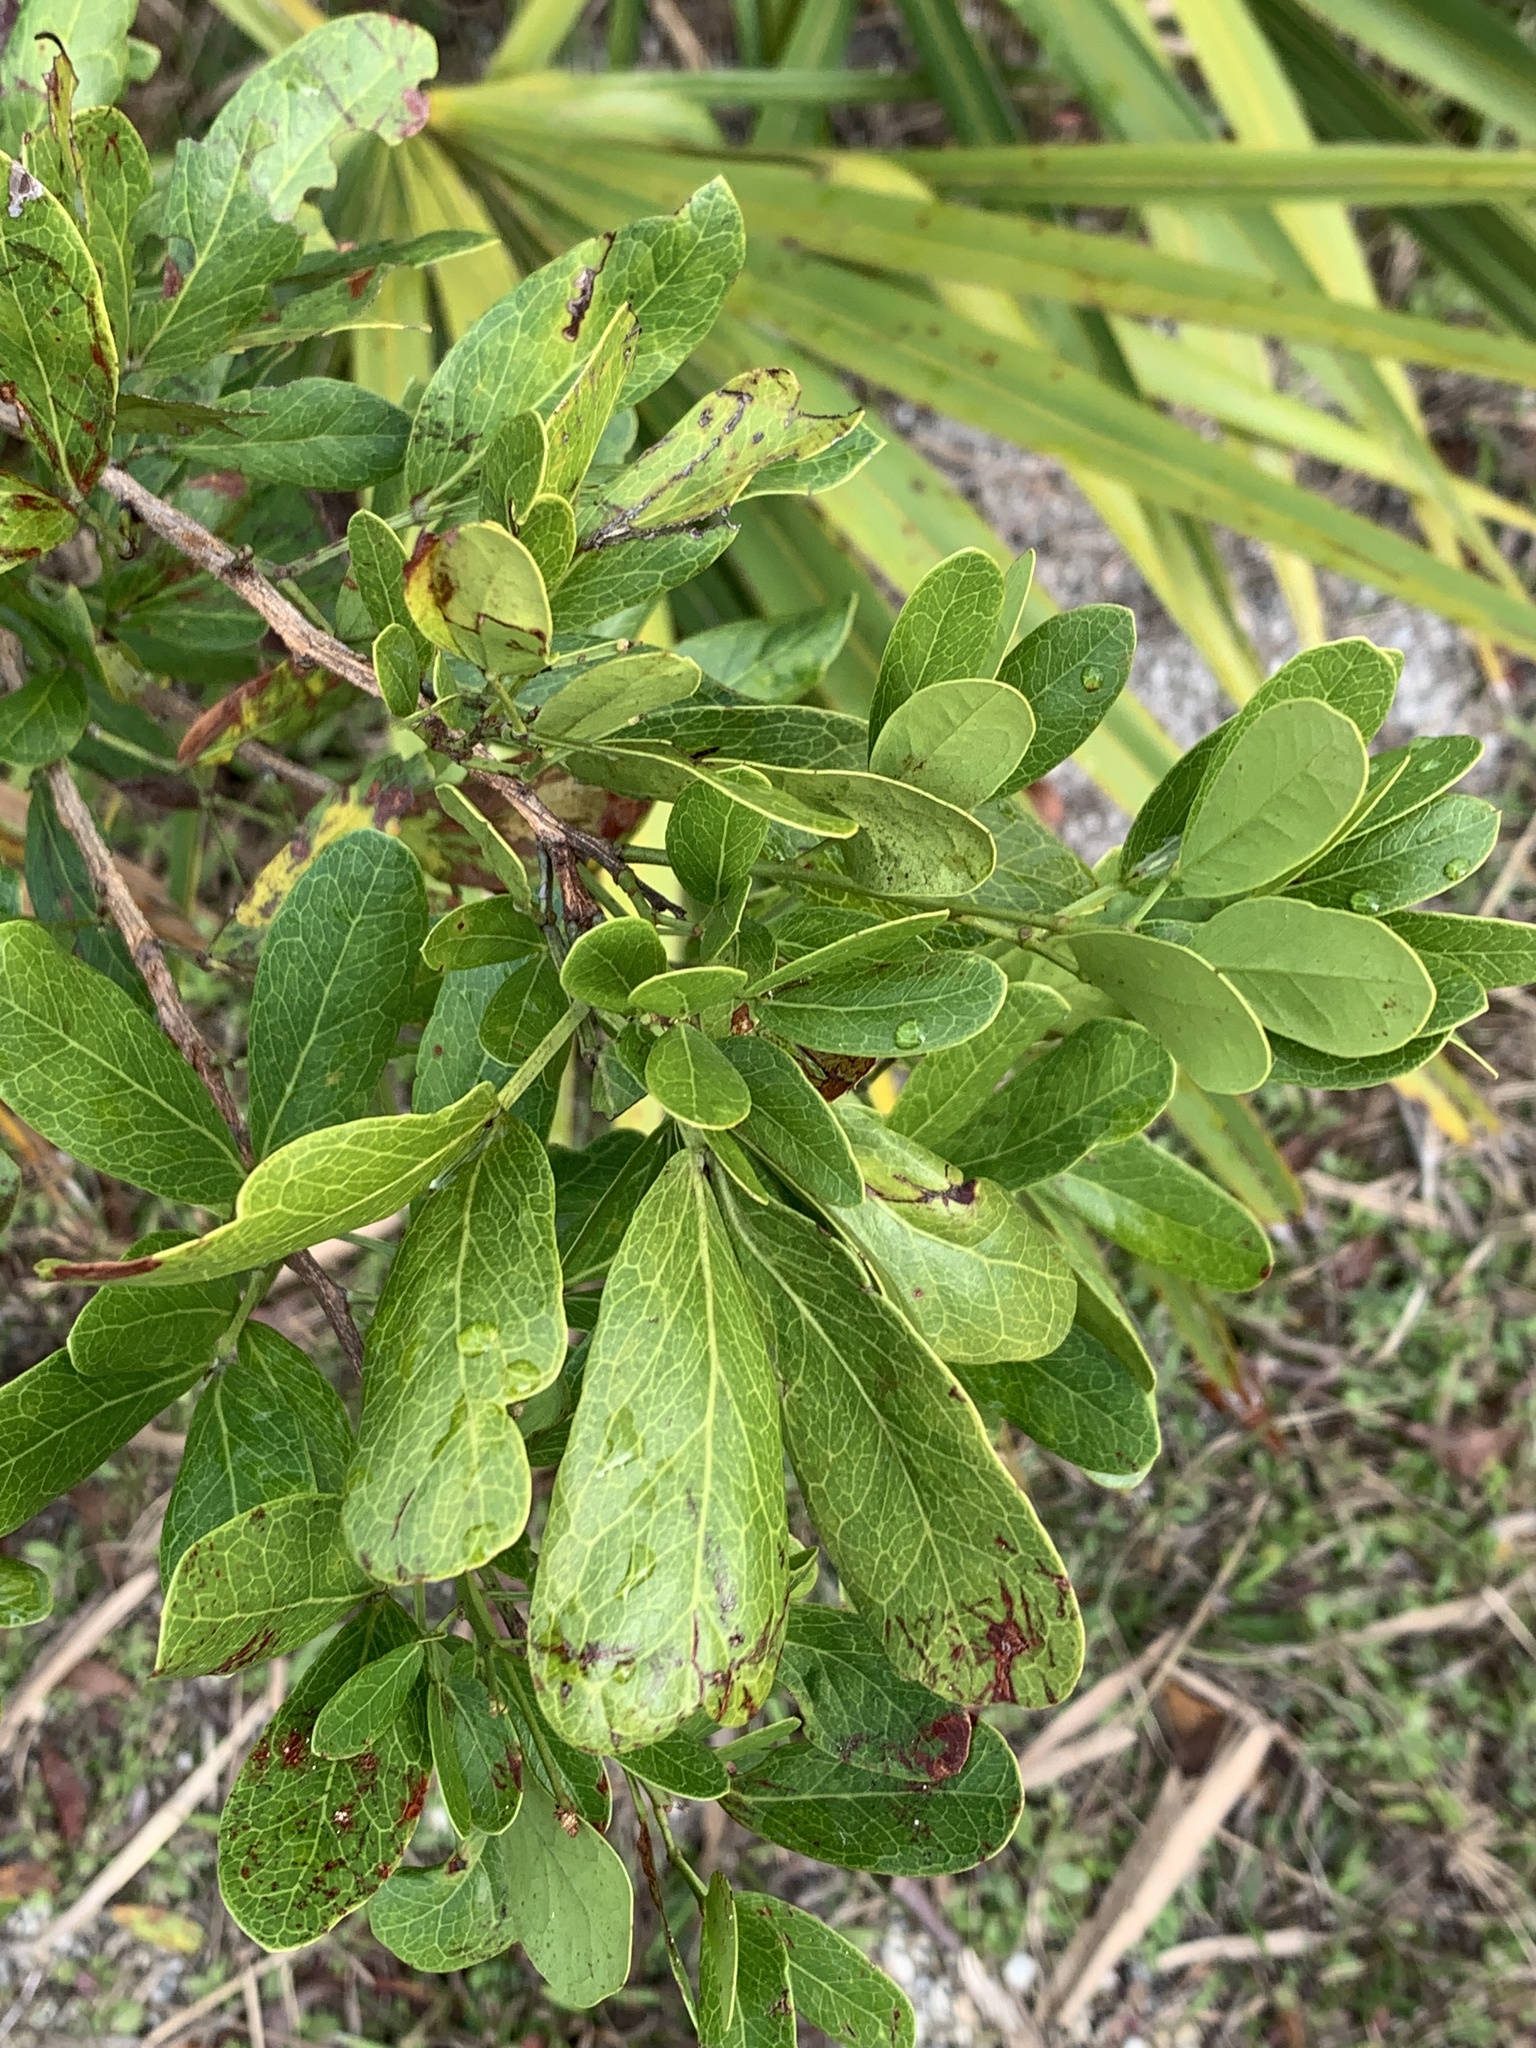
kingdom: Plantae
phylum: Tracheophyta
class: Magnoliopsida
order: Fabales
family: Fabaceae
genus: Pithecellobium
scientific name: Pithecellobium keyense
